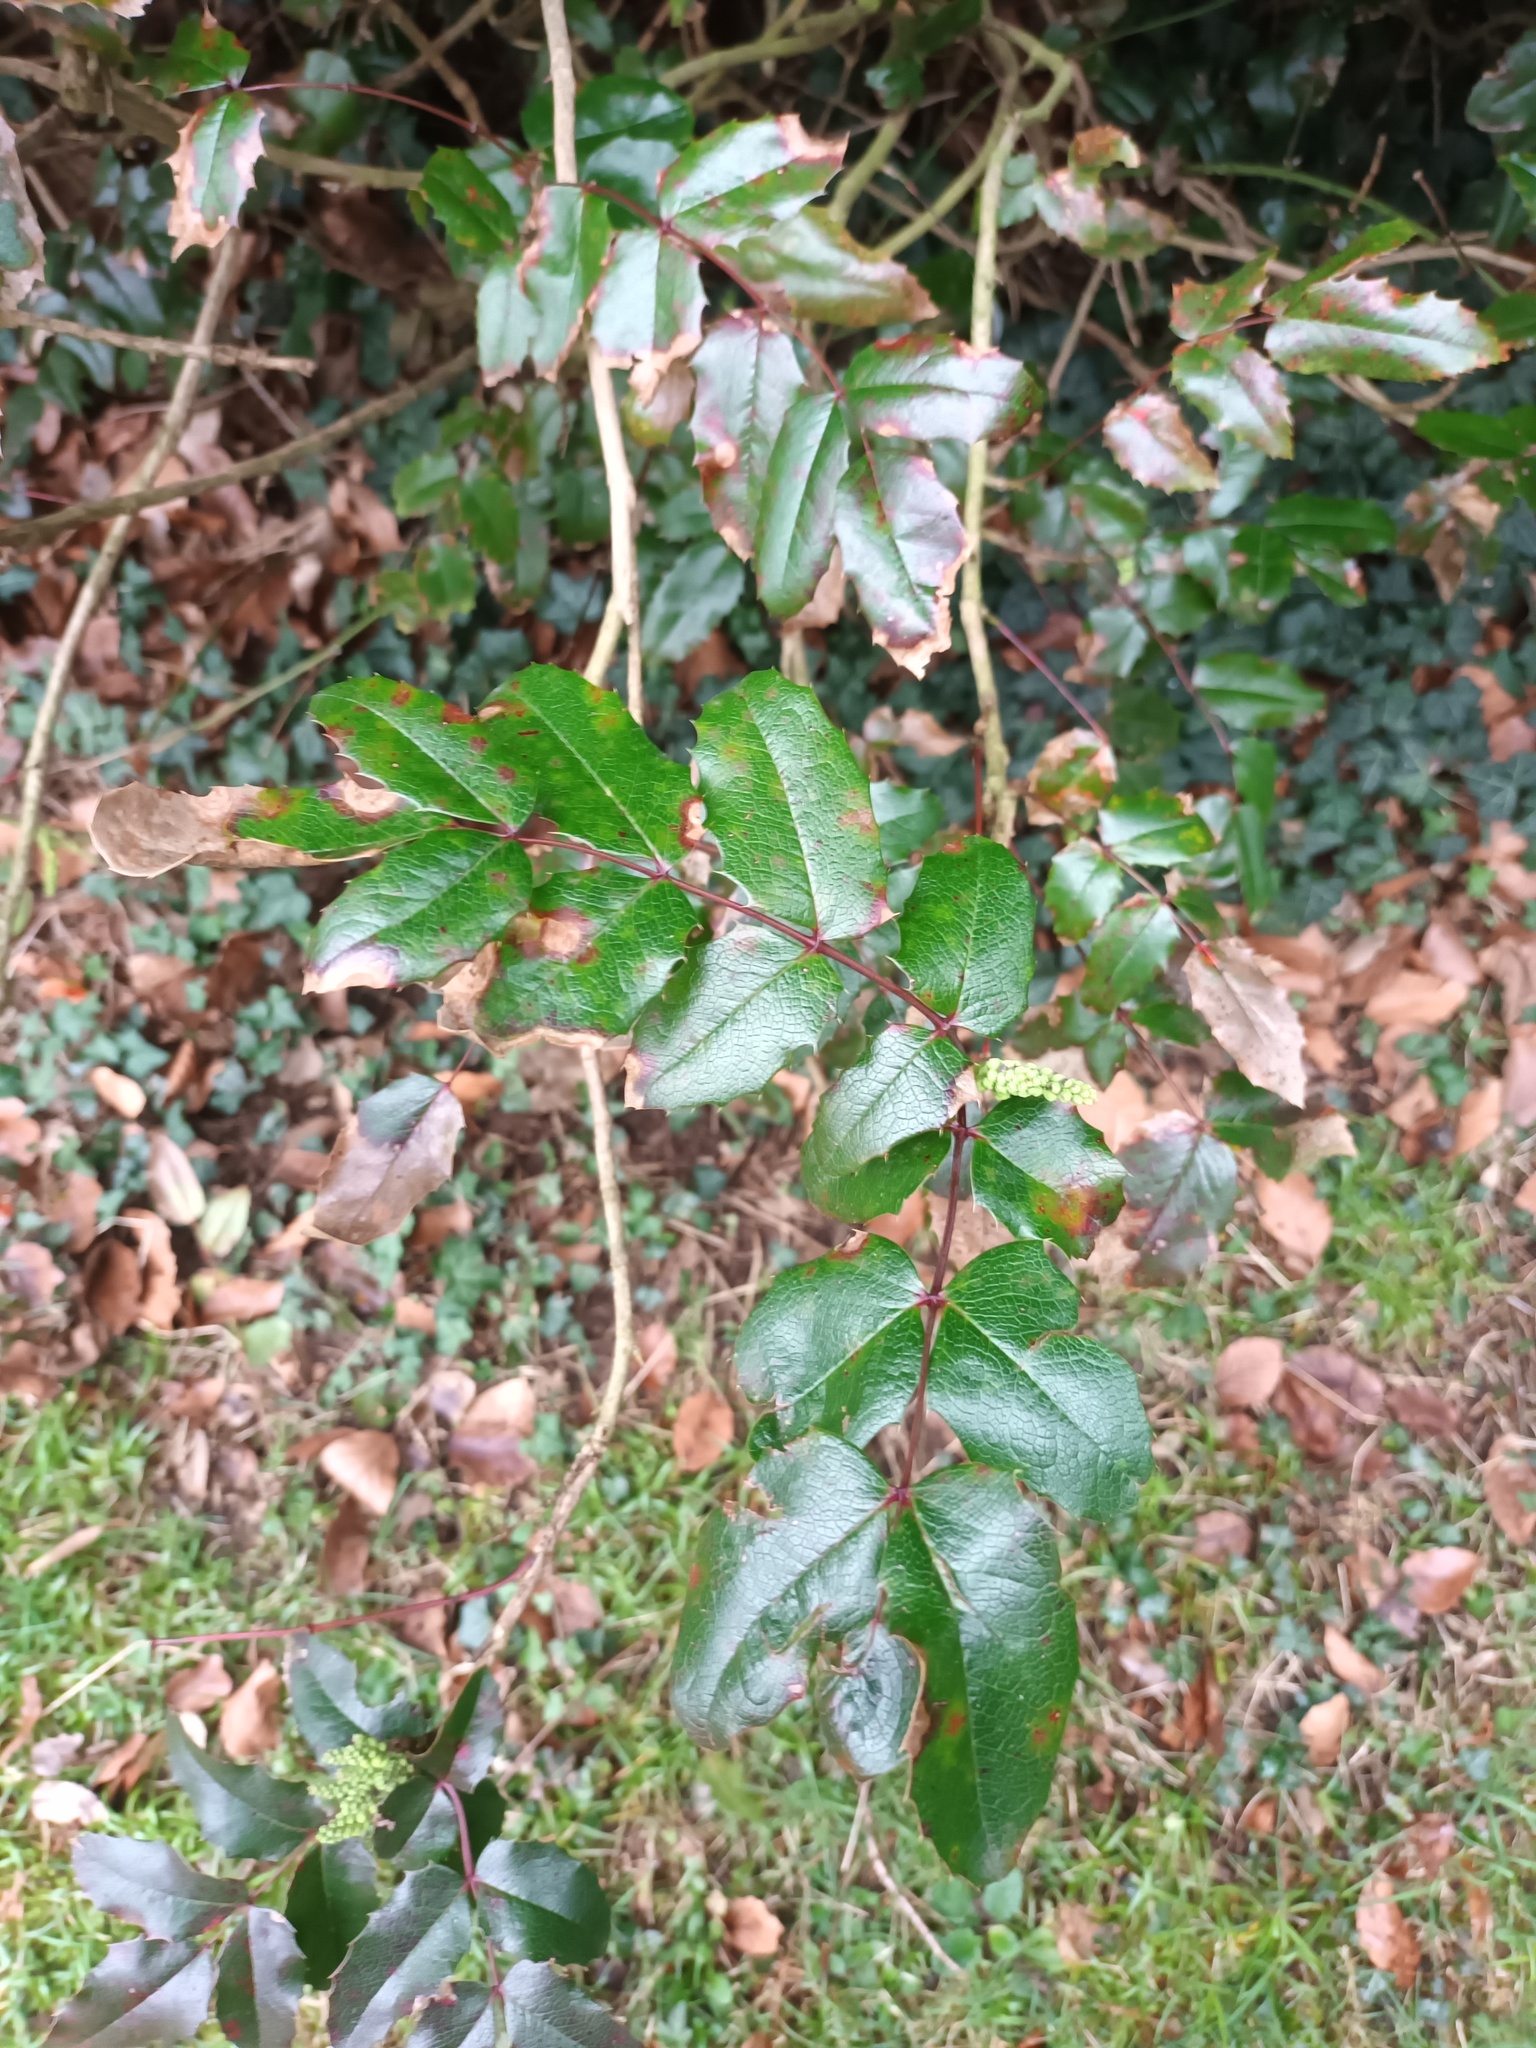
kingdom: Plantae
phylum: Tracheophyta
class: Magnoliopsida
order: Ranunculales
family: Berberidaceae
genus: Mahonia
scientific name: Mahonia aquifolium
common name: Oregon-grape
